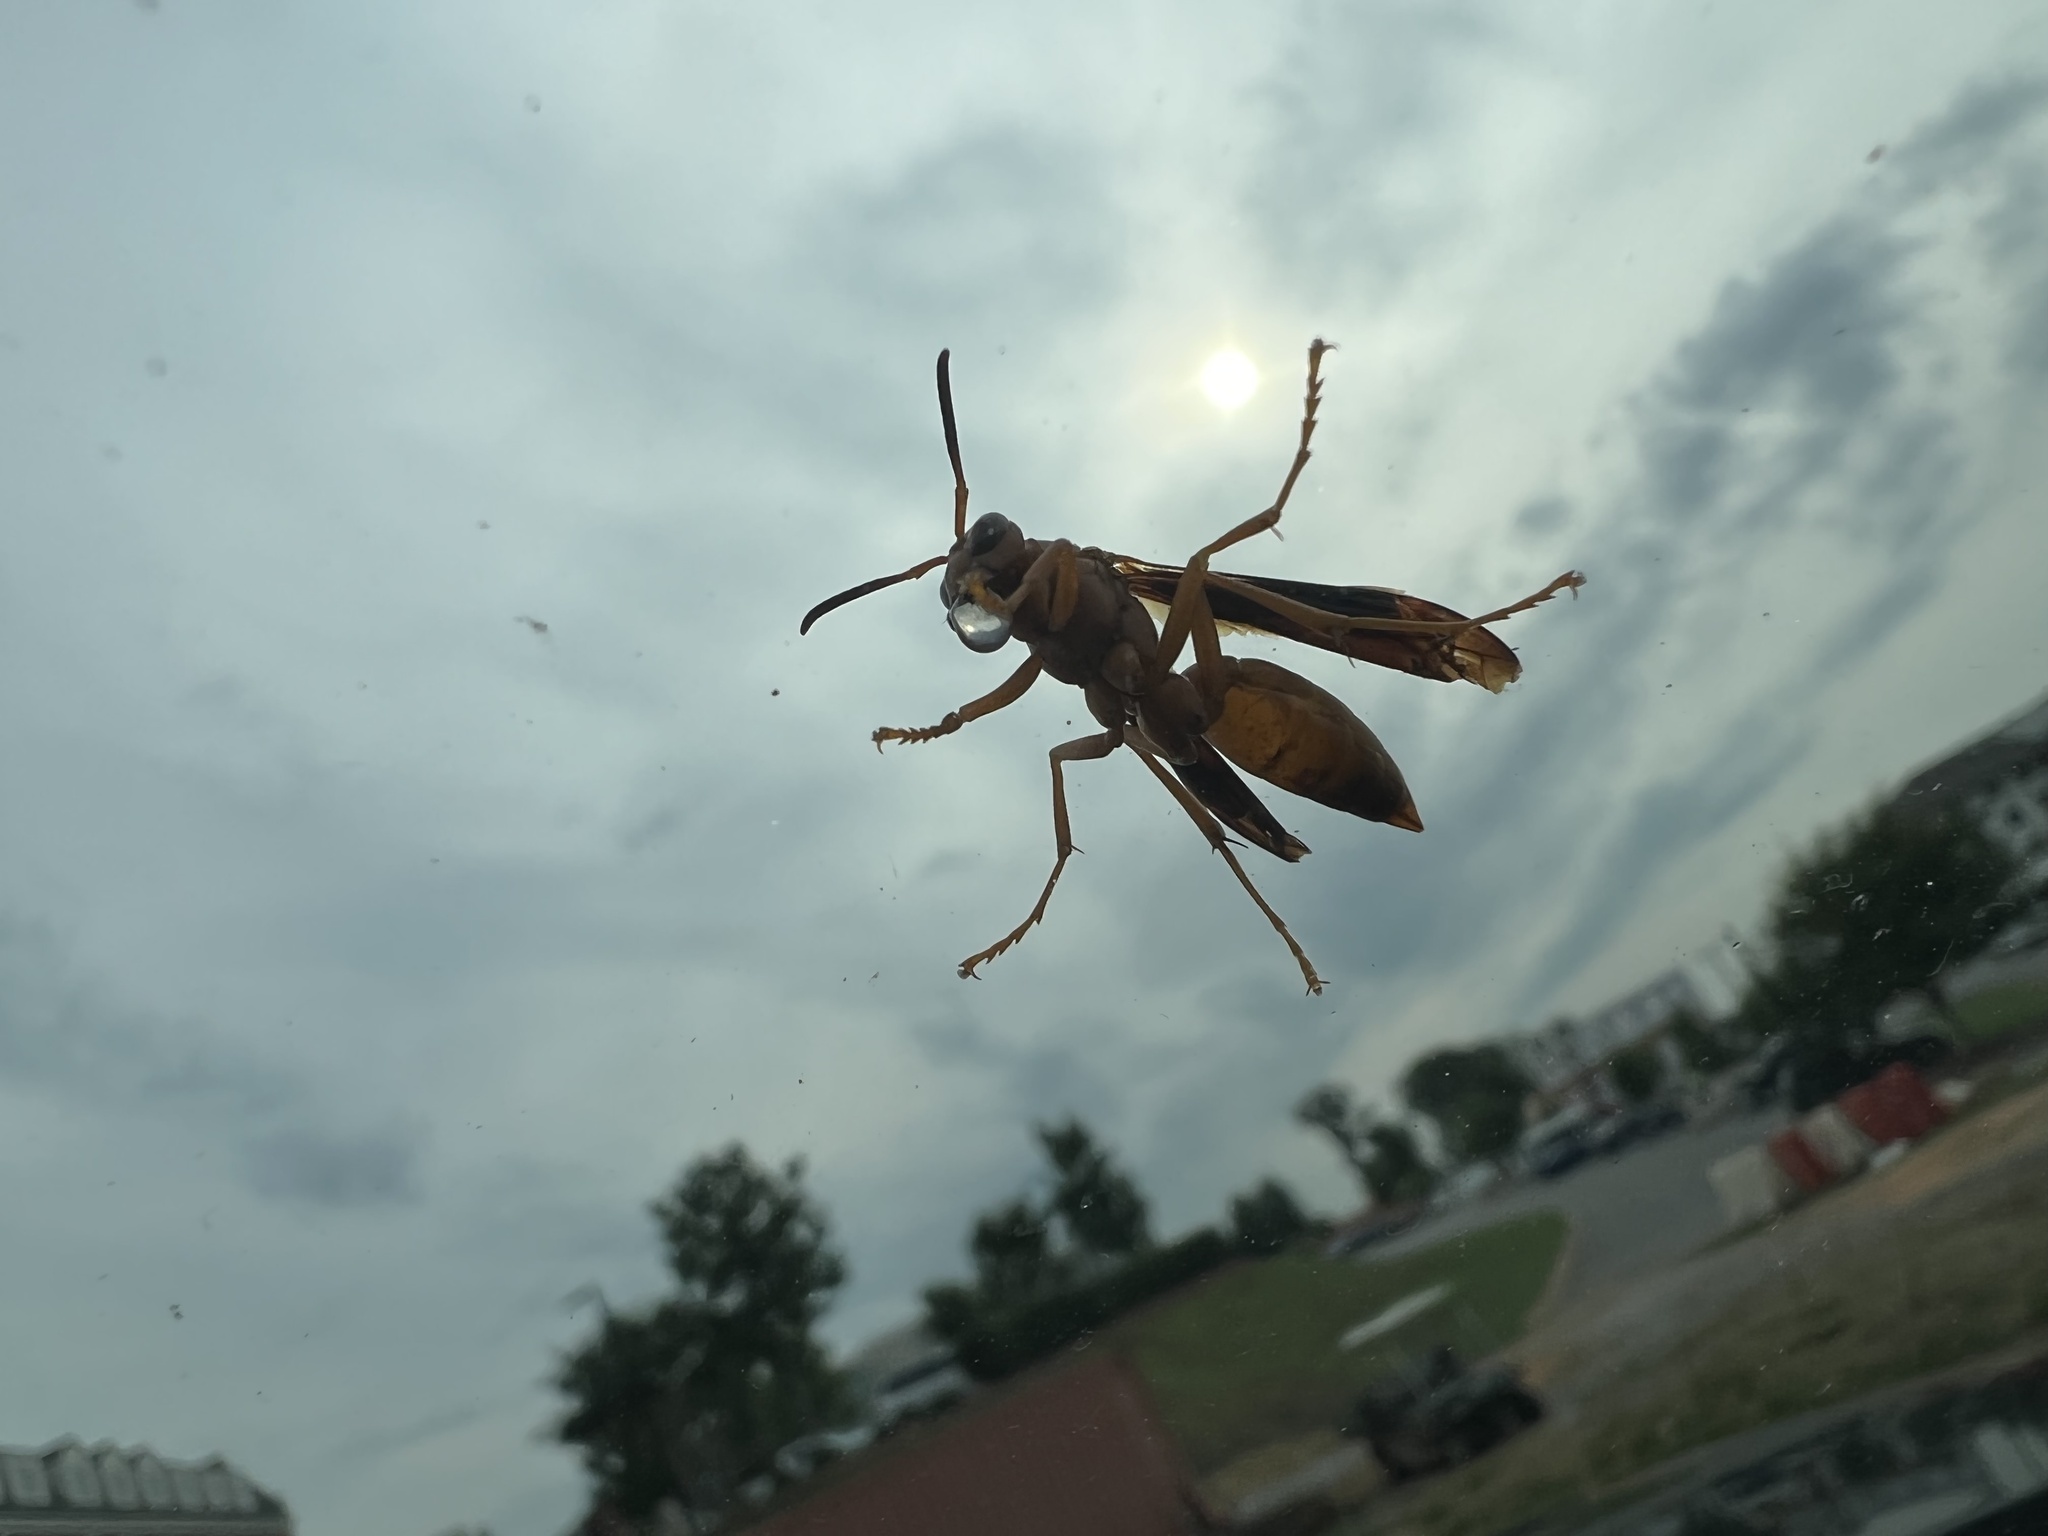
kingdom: Animalia
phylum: Arthropoda
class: Insecta
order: Hymenoptera
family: Vespidae
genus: Fuscopolistes
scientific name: Fuscopolistes
